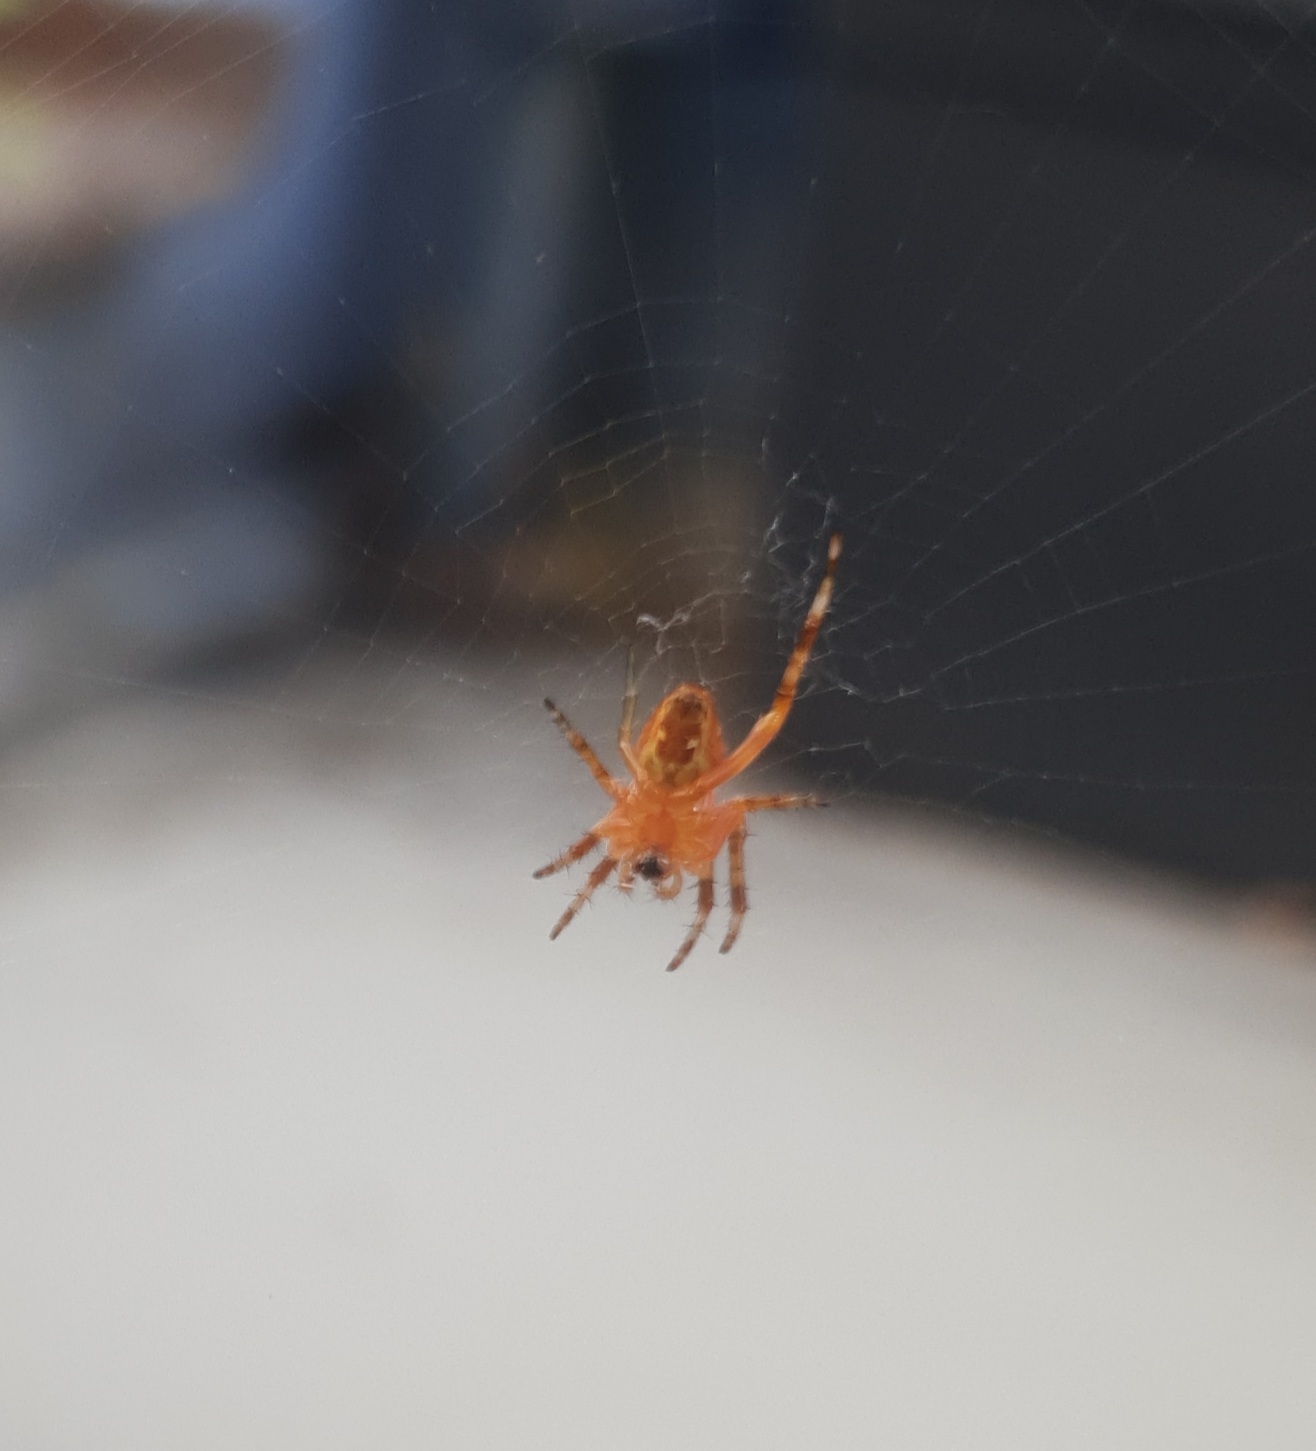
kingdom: Animalia
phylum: Arthropoda
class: Arachnida
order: Araneae
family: Araneidae
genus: Araneus
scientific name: Araneus diadematus
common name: Cross orbweaver
